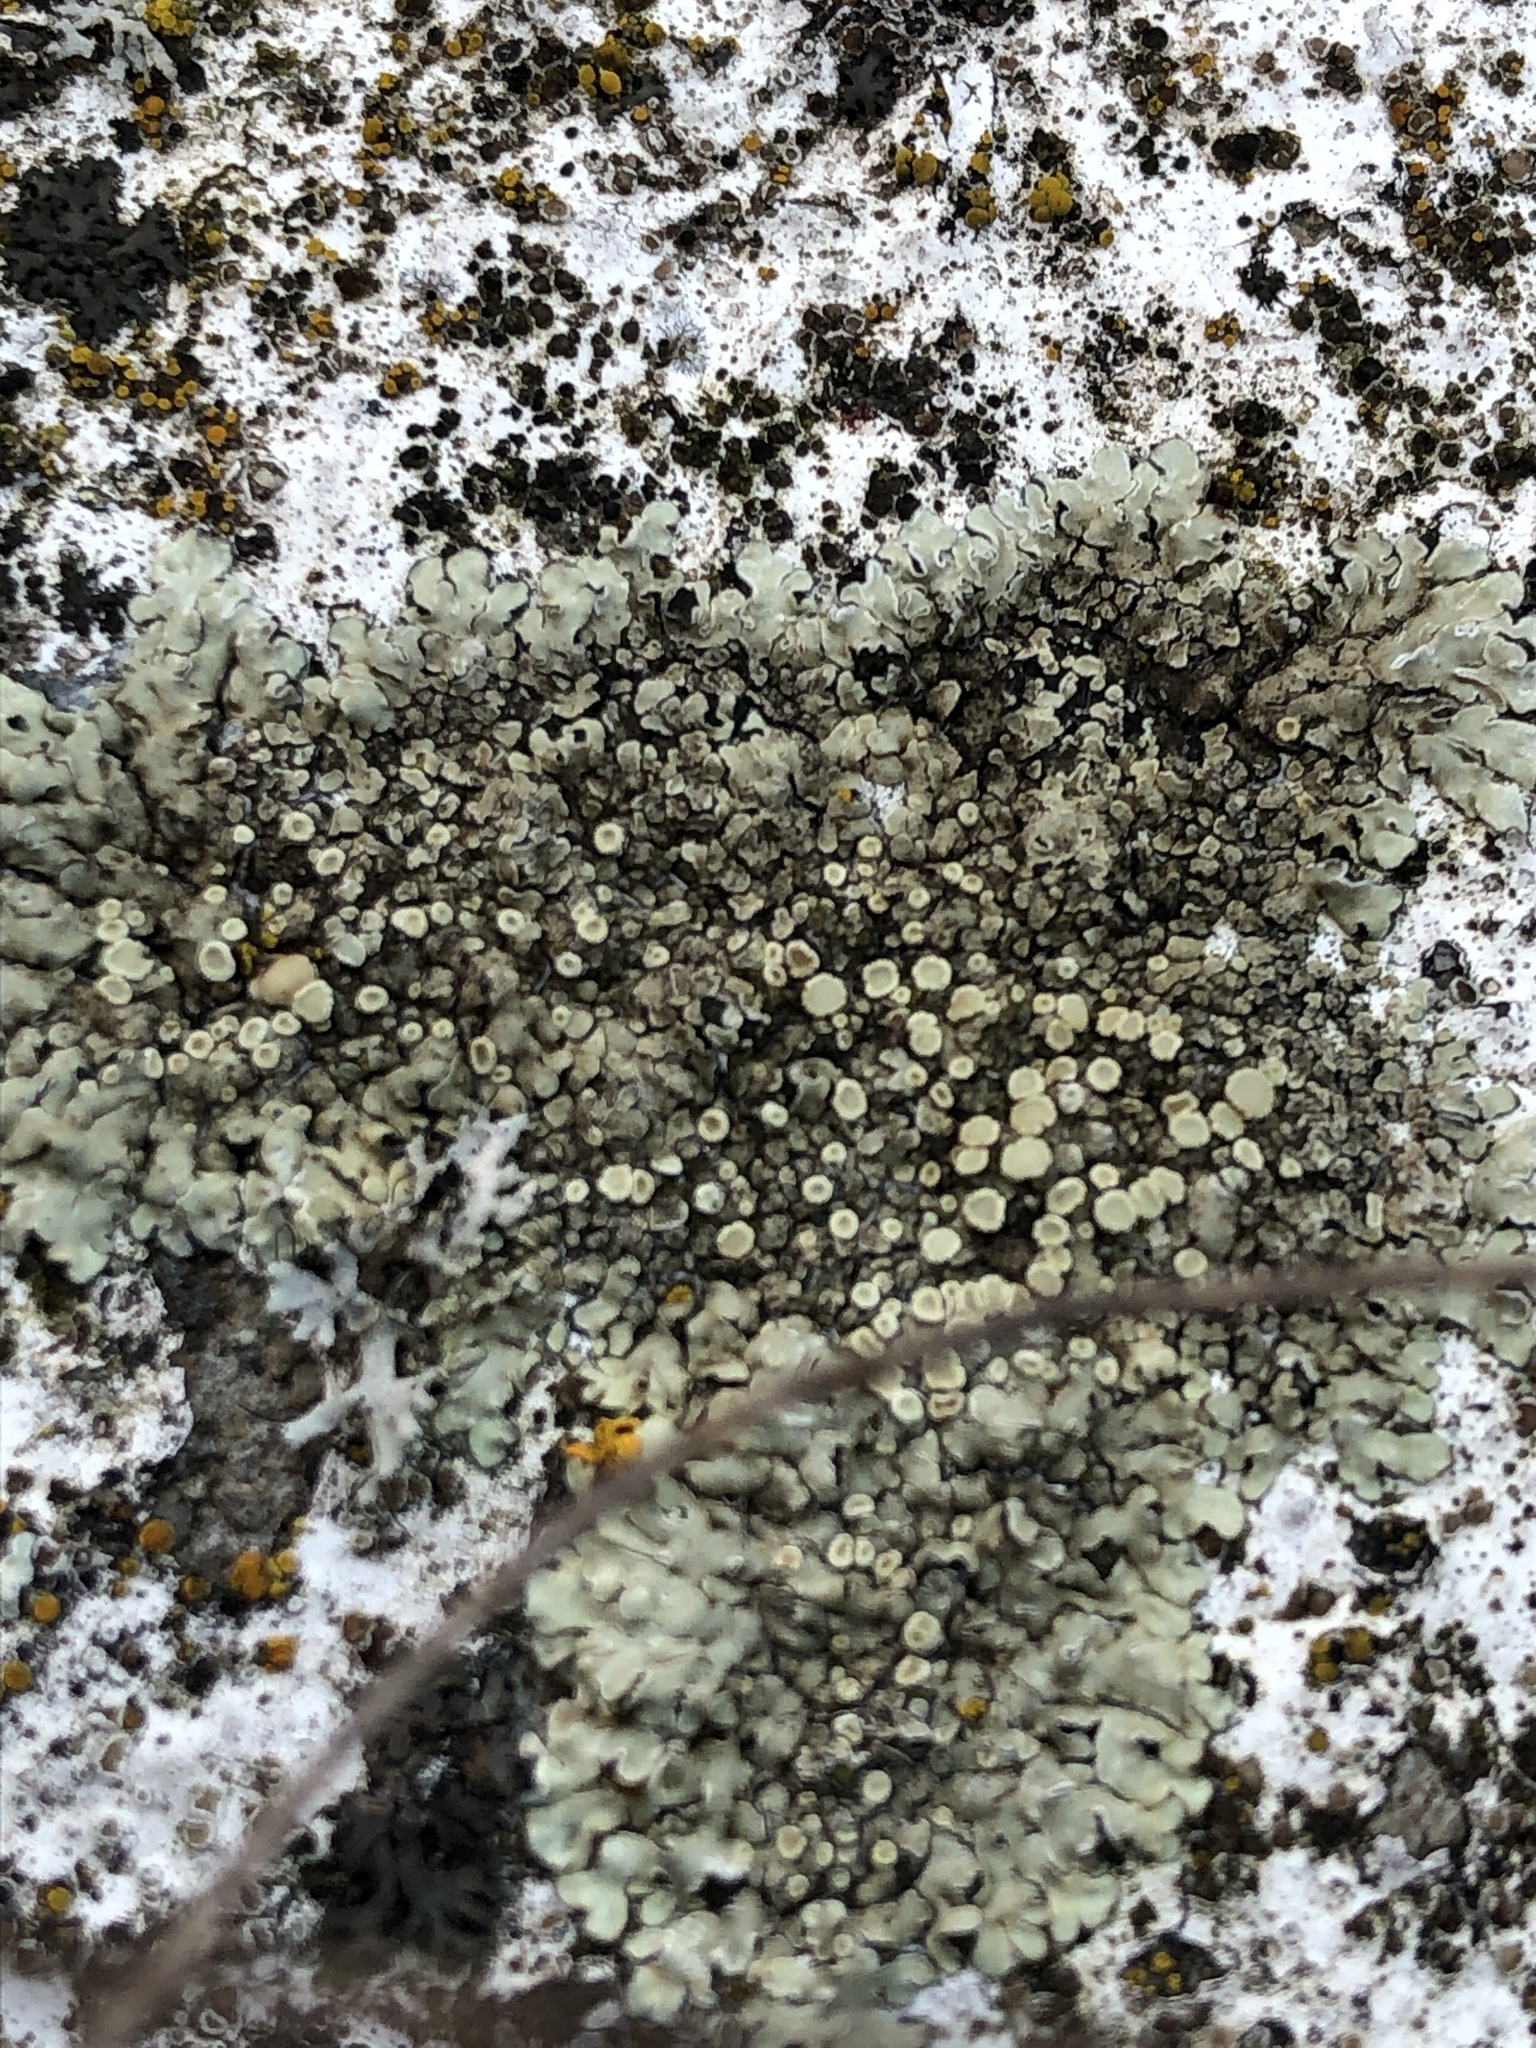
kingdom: Fungi
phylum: Ascomycota
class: Lecanoromycetes
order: Lecanorales
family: Lecanoraceae
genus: Protoparmeliopsis
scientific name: Protoparmeliopsis muralis
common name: Stonewall rim lichen
